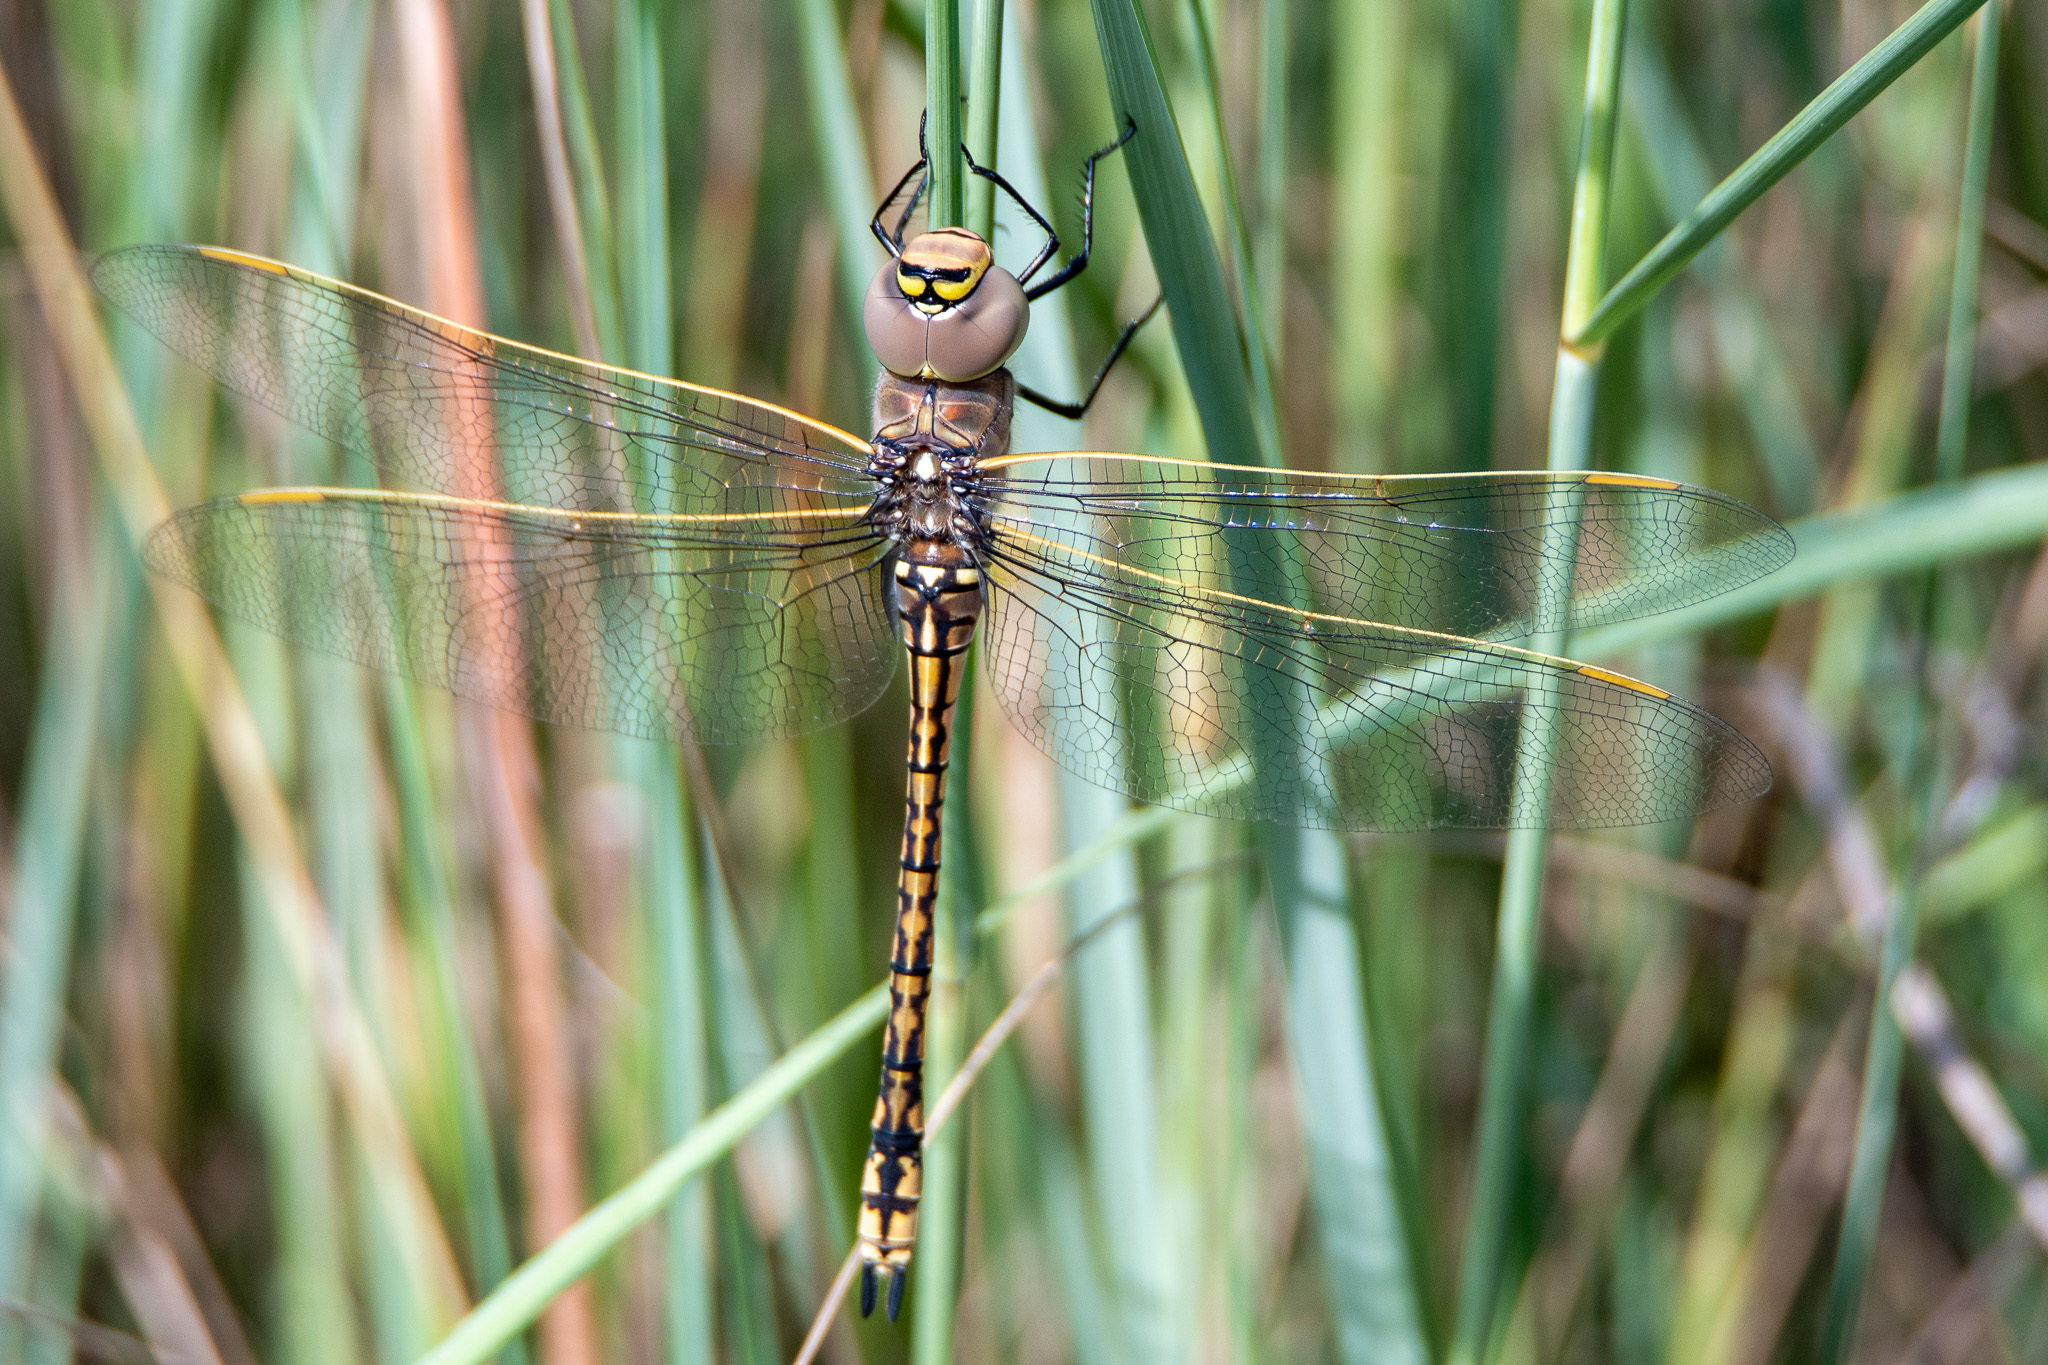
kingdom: Animalia
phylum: Arthropoda
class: Insecta
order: Odonata
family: Aeshnidae
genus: Anax
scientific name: Anax papuensis
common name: Australian emperor
